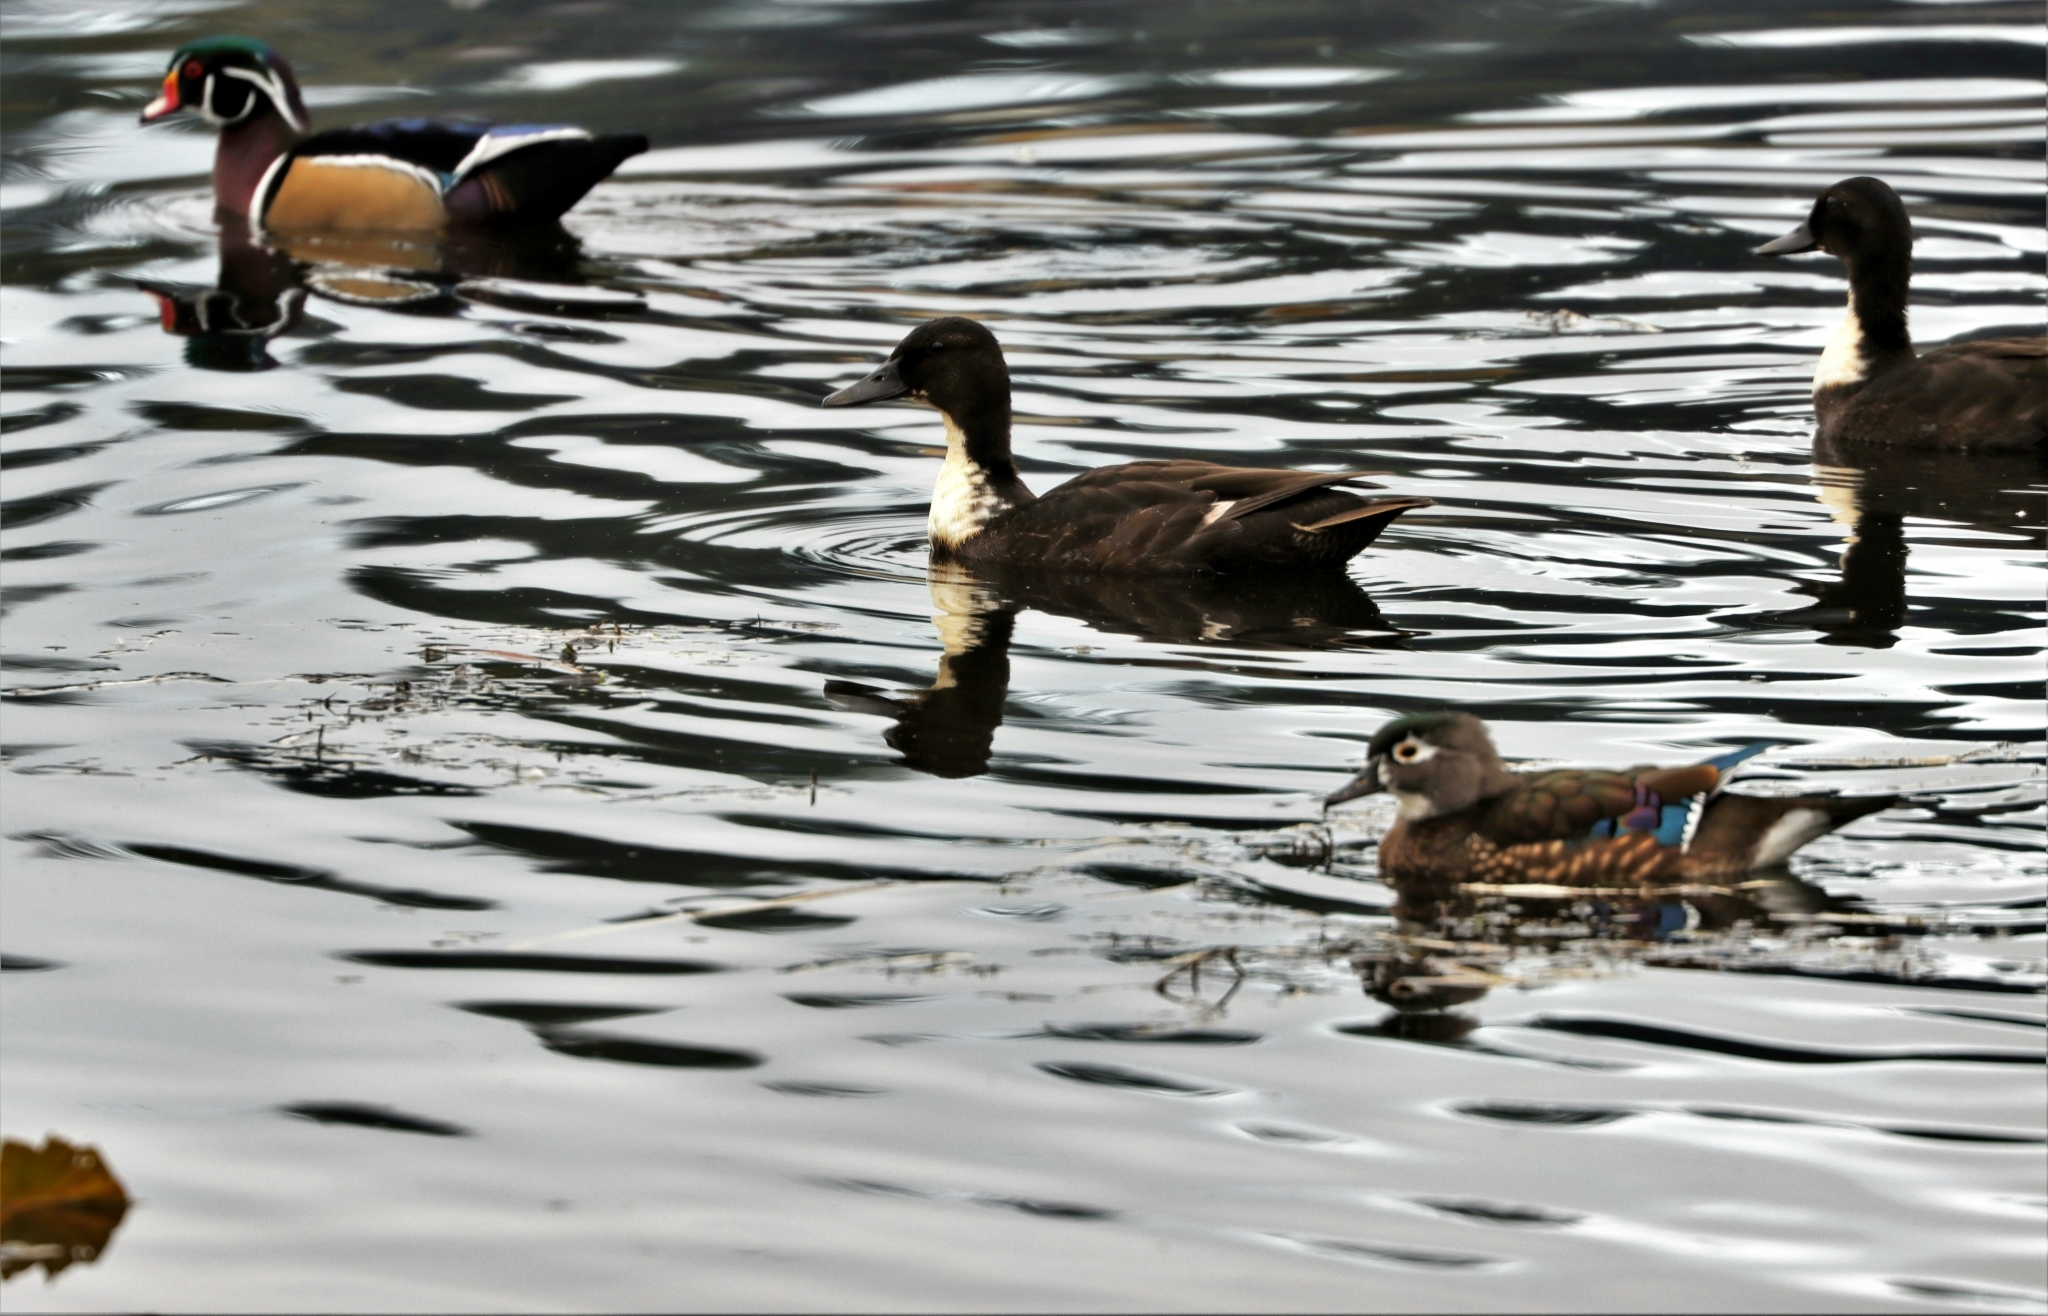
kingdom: Animalia
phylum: Chordata
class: Aves
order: Anseriformes
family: Anatidae
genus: Anas
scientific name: Anas platyrhynchos
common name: Mallard
